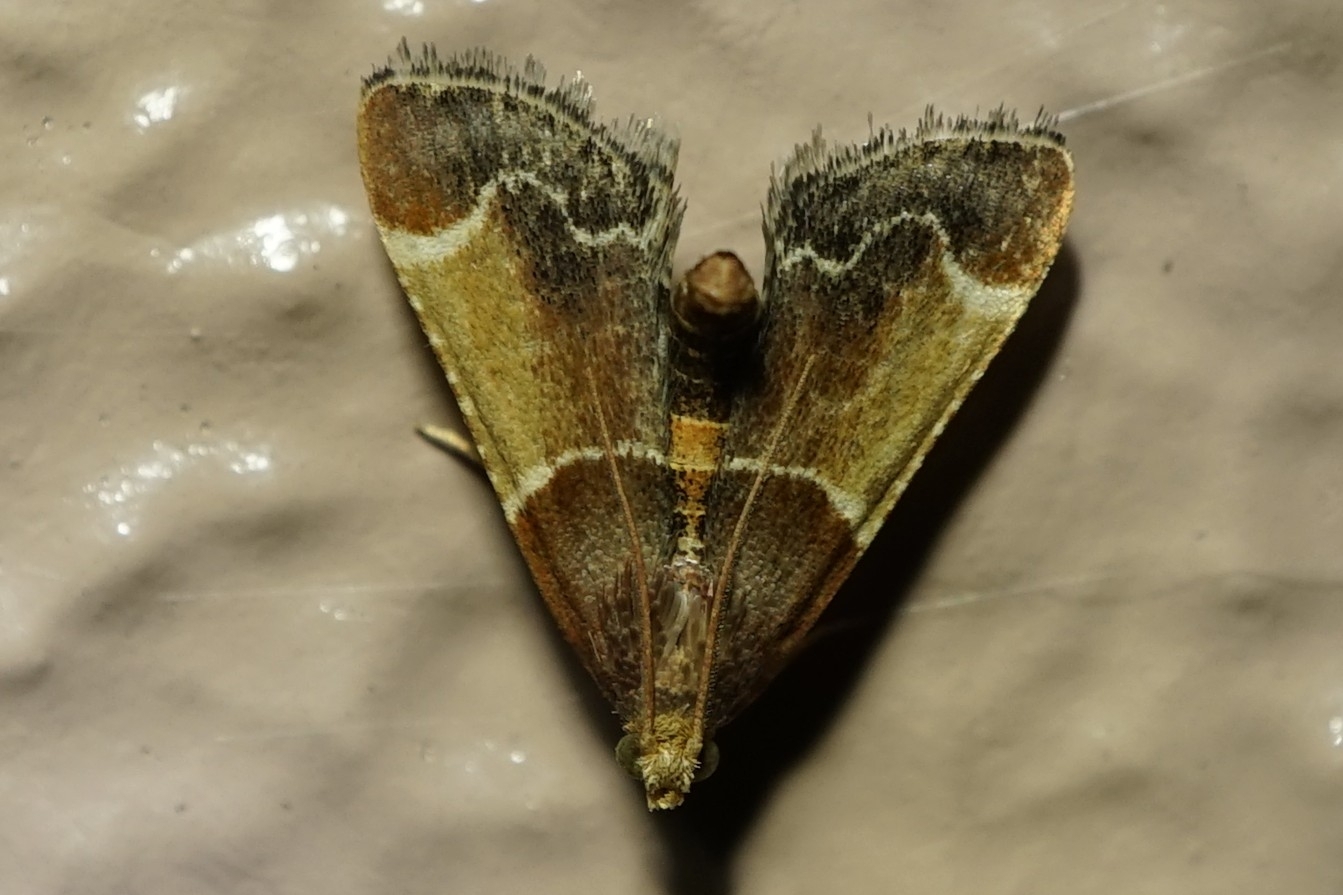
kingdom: Animalia
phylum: Arthropoda
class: Insecta
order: Lepidoptera
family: Pyralidae
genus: Pyralis
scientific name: Pyralis farinalis
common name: Meal moth
